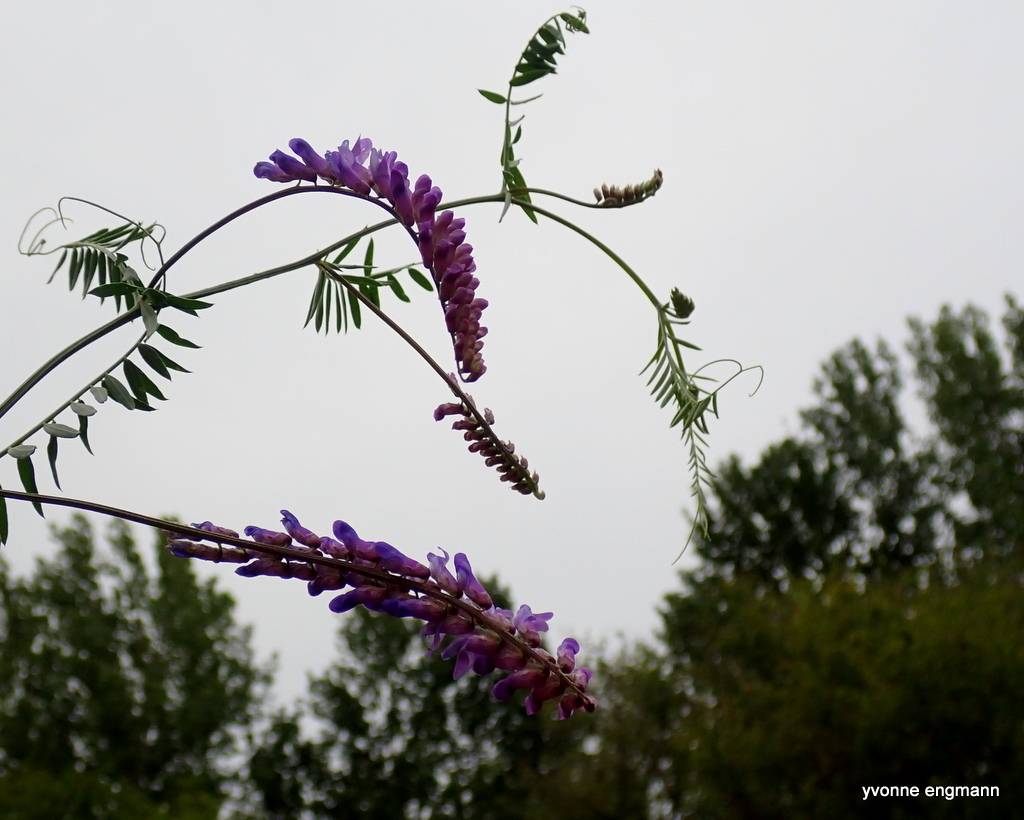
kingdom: Plantae
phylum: Tracheophyta
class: Magnoliopsida
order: Fabales
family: Fabaceae
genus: Vicia
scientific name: Vicia cracca
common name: Bird vetch
